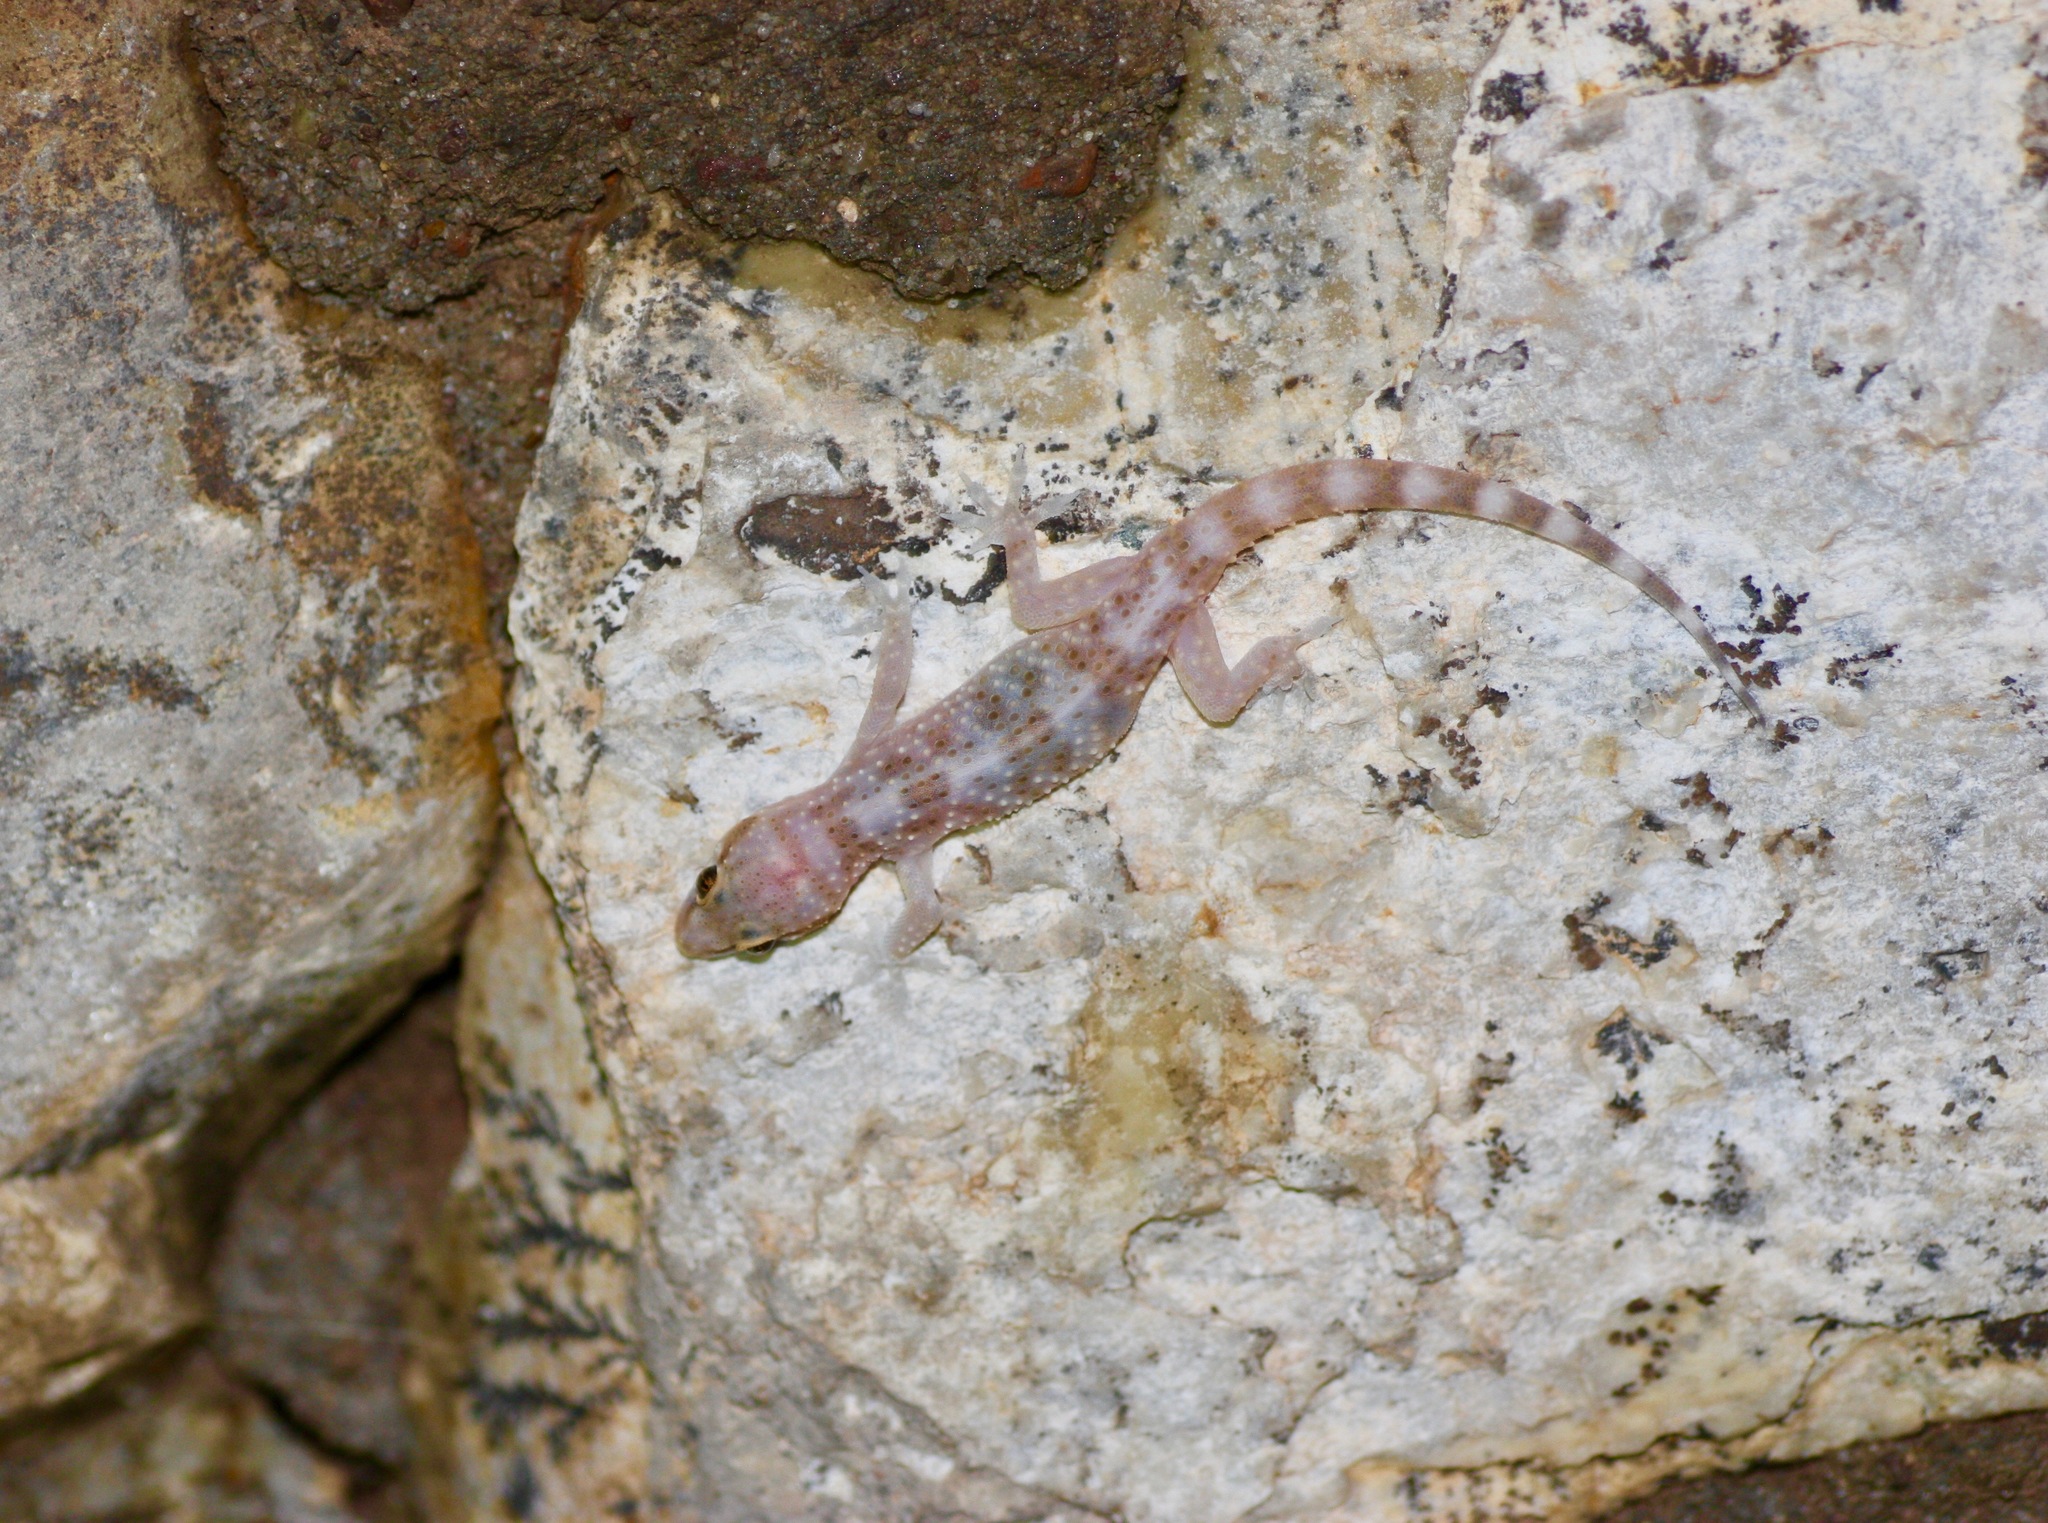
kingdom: Animalia
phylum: Chordata
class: Squamata
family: Gekkonidae
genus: Hemidactylus
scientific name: Hemidactylus turcicus
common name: Turkish gecko
